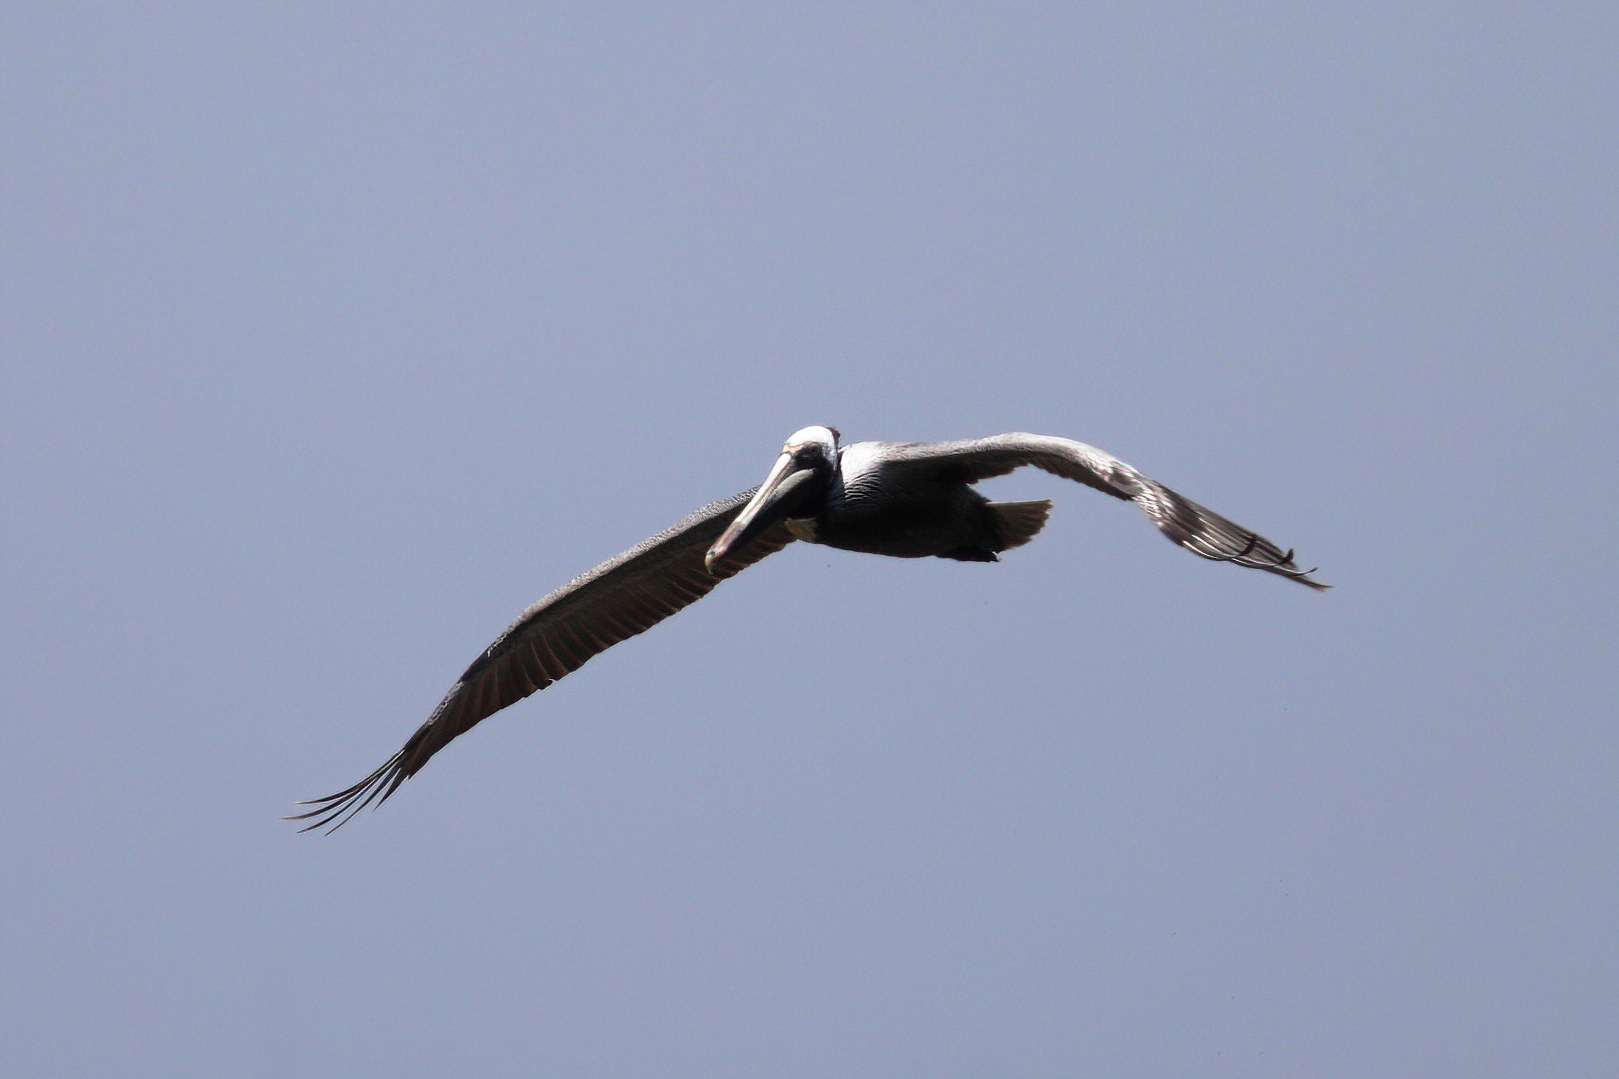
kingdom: Animalia
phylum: Chordata
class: Aves
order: Pelecaniformes
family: Pelecanidae
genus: Pelecanus
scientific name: Pelecanus occidentalis
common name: Brown pelican
